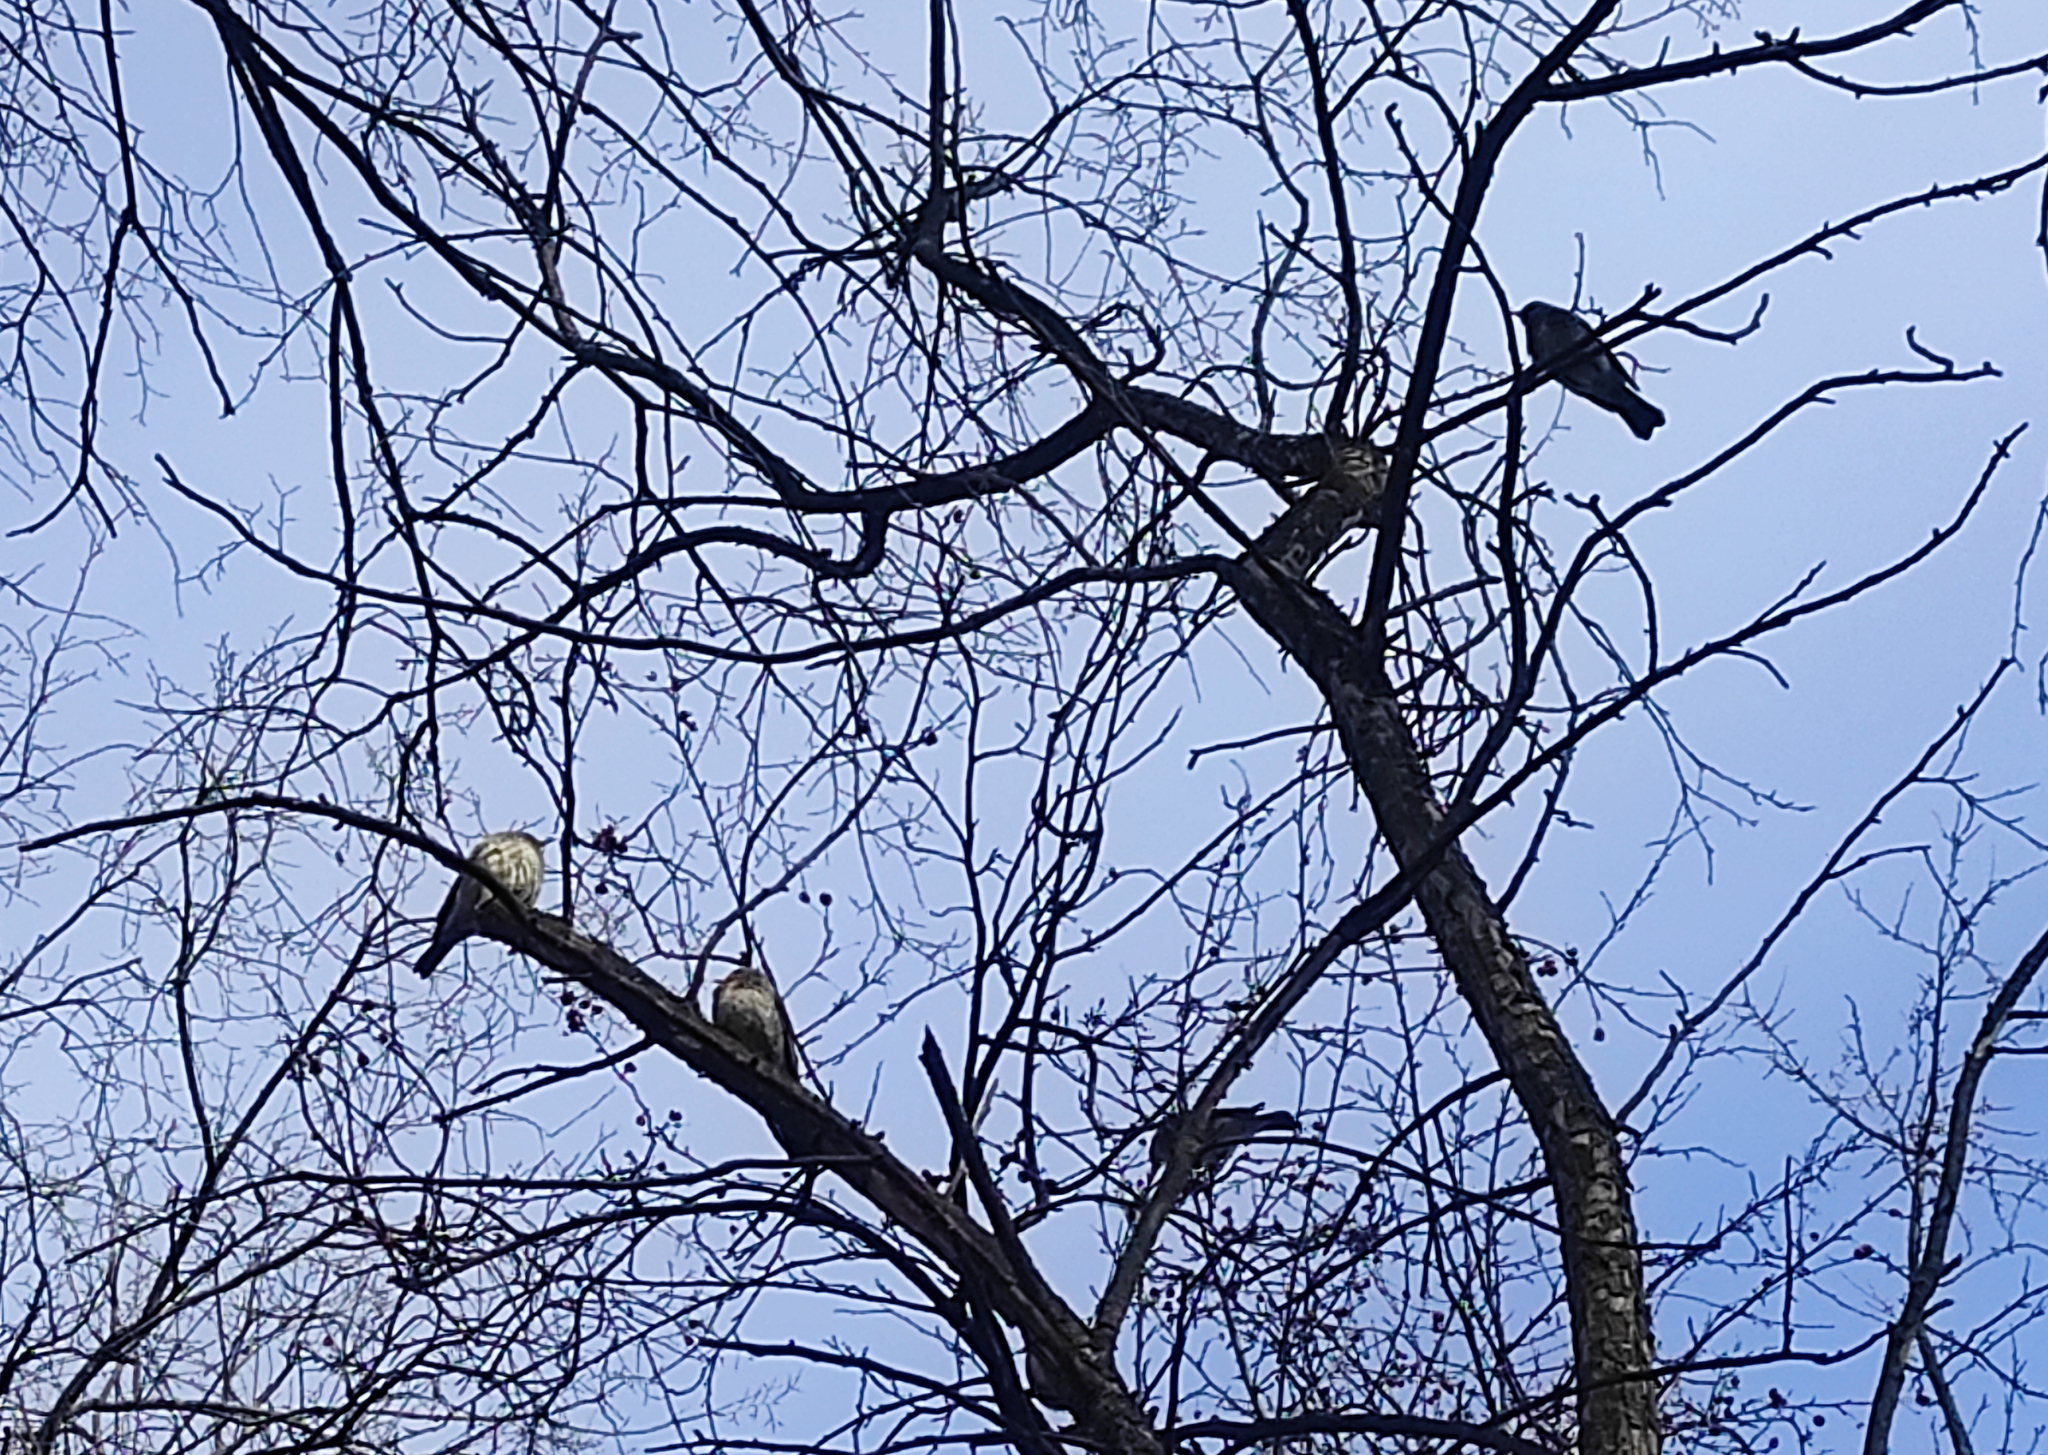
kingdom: Animalia
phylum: Chordata
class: Aves
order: Passeriformes
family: Turdidae
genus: Turdus
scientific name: Turdus pilaris
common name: Fieldfare
